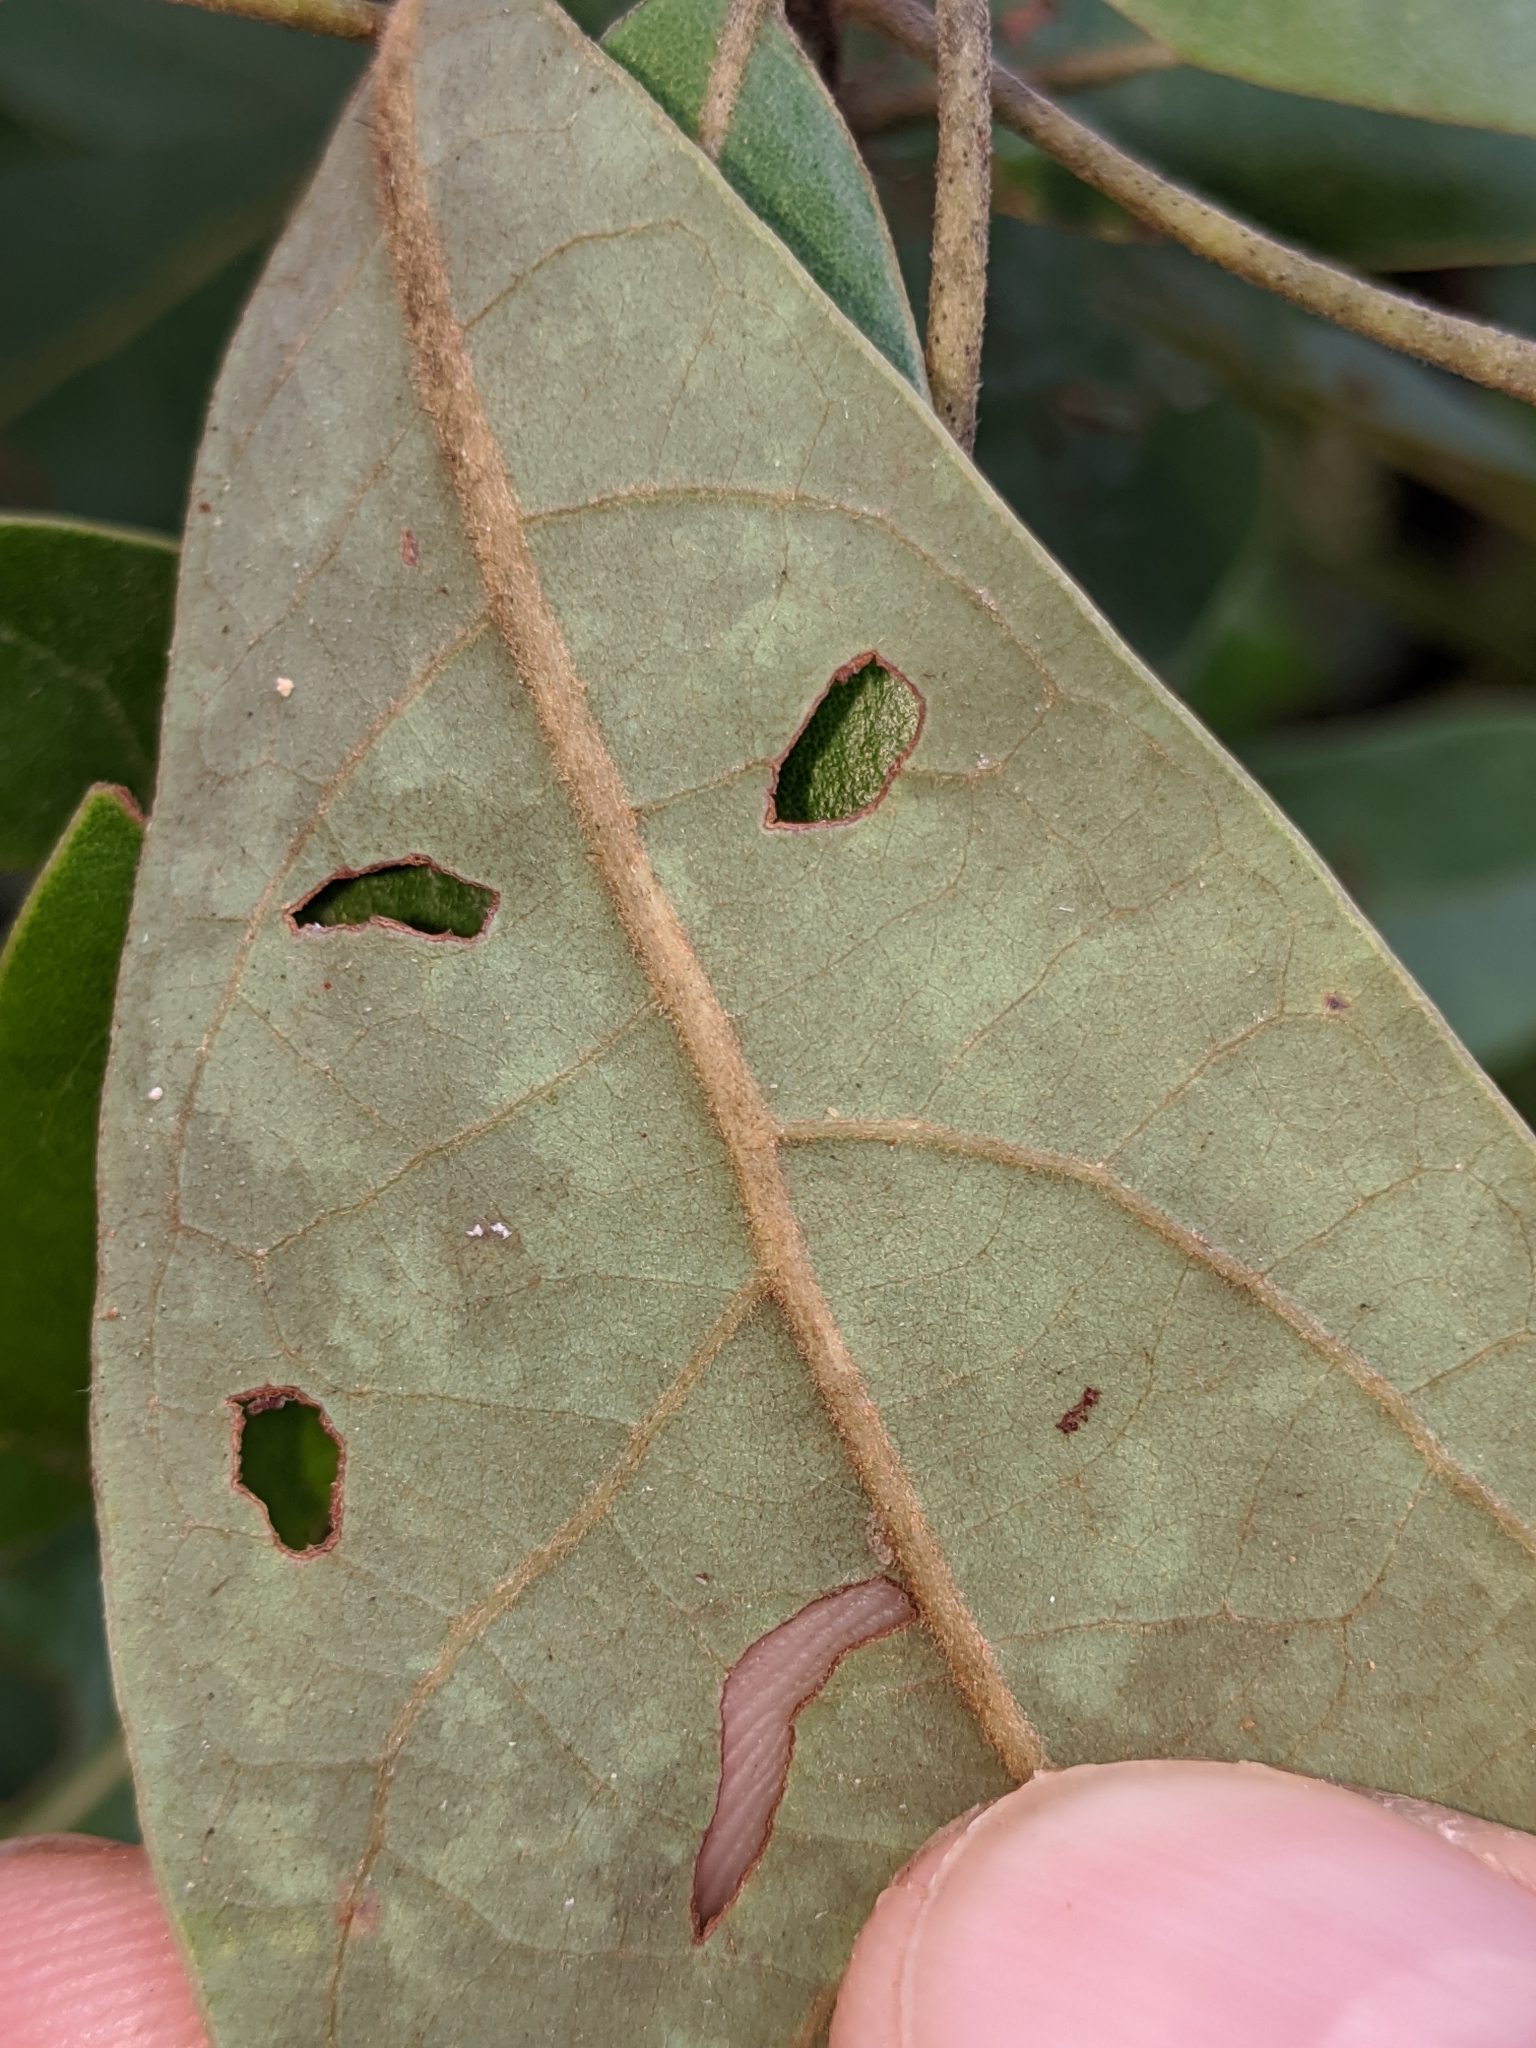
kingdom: Plantae
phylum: Tracheophyta
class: Magnoliopsida
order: Laurales
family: Lauraceae
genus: Persea
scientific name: Persea palustris
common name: Swampbay
